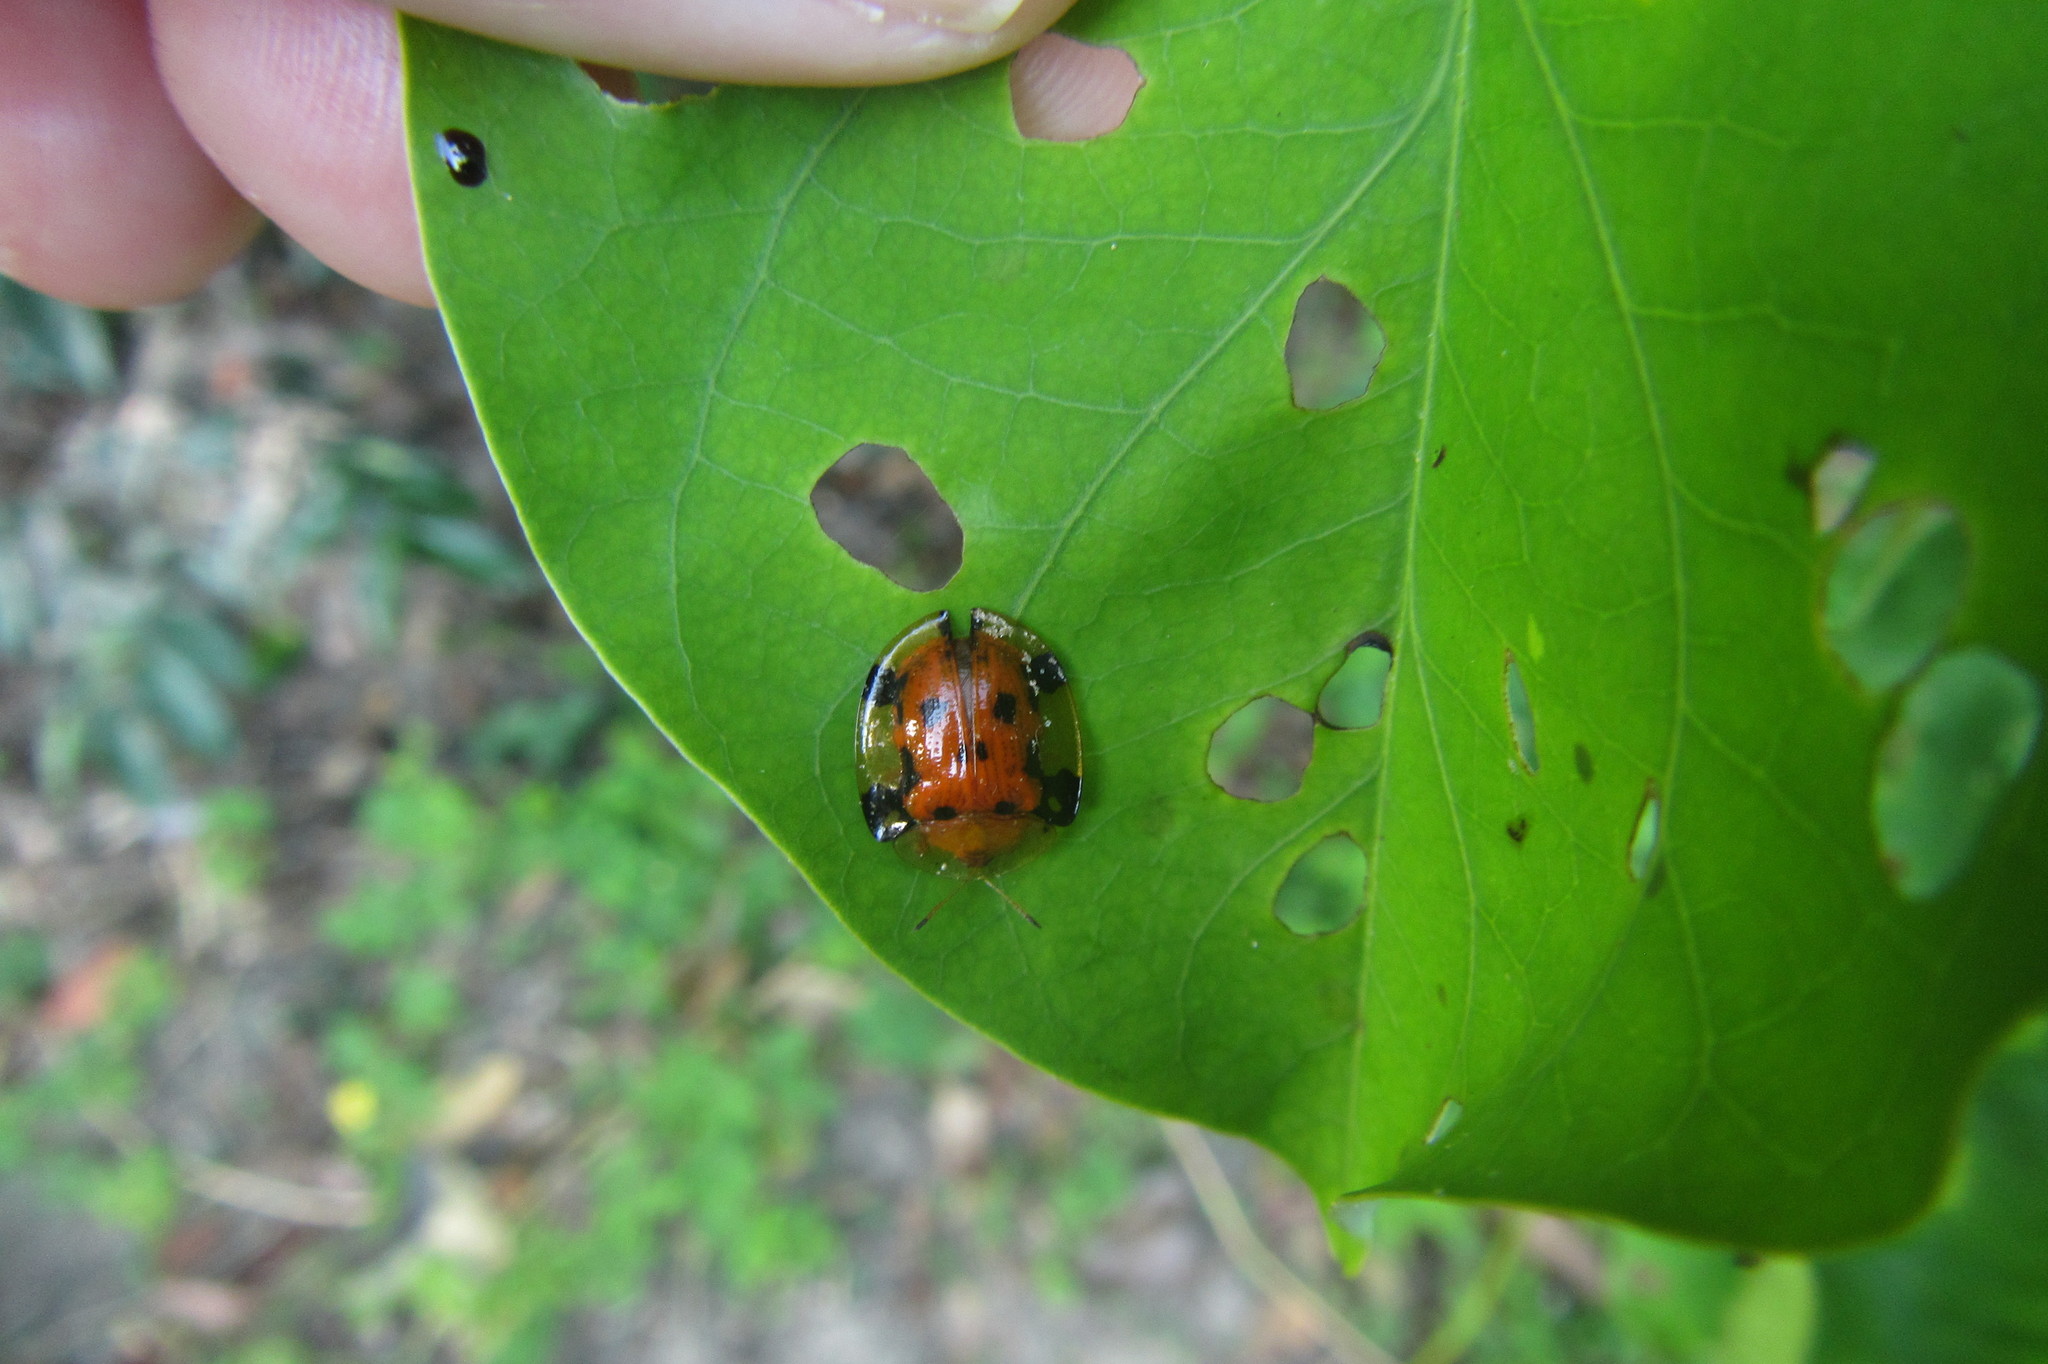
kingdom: Animalia
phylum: Arthropoda
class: Insecta
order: Coleoptera
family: Chrysomelidae
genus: Aspidimorpha
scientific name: Aspidimorpha punctum
